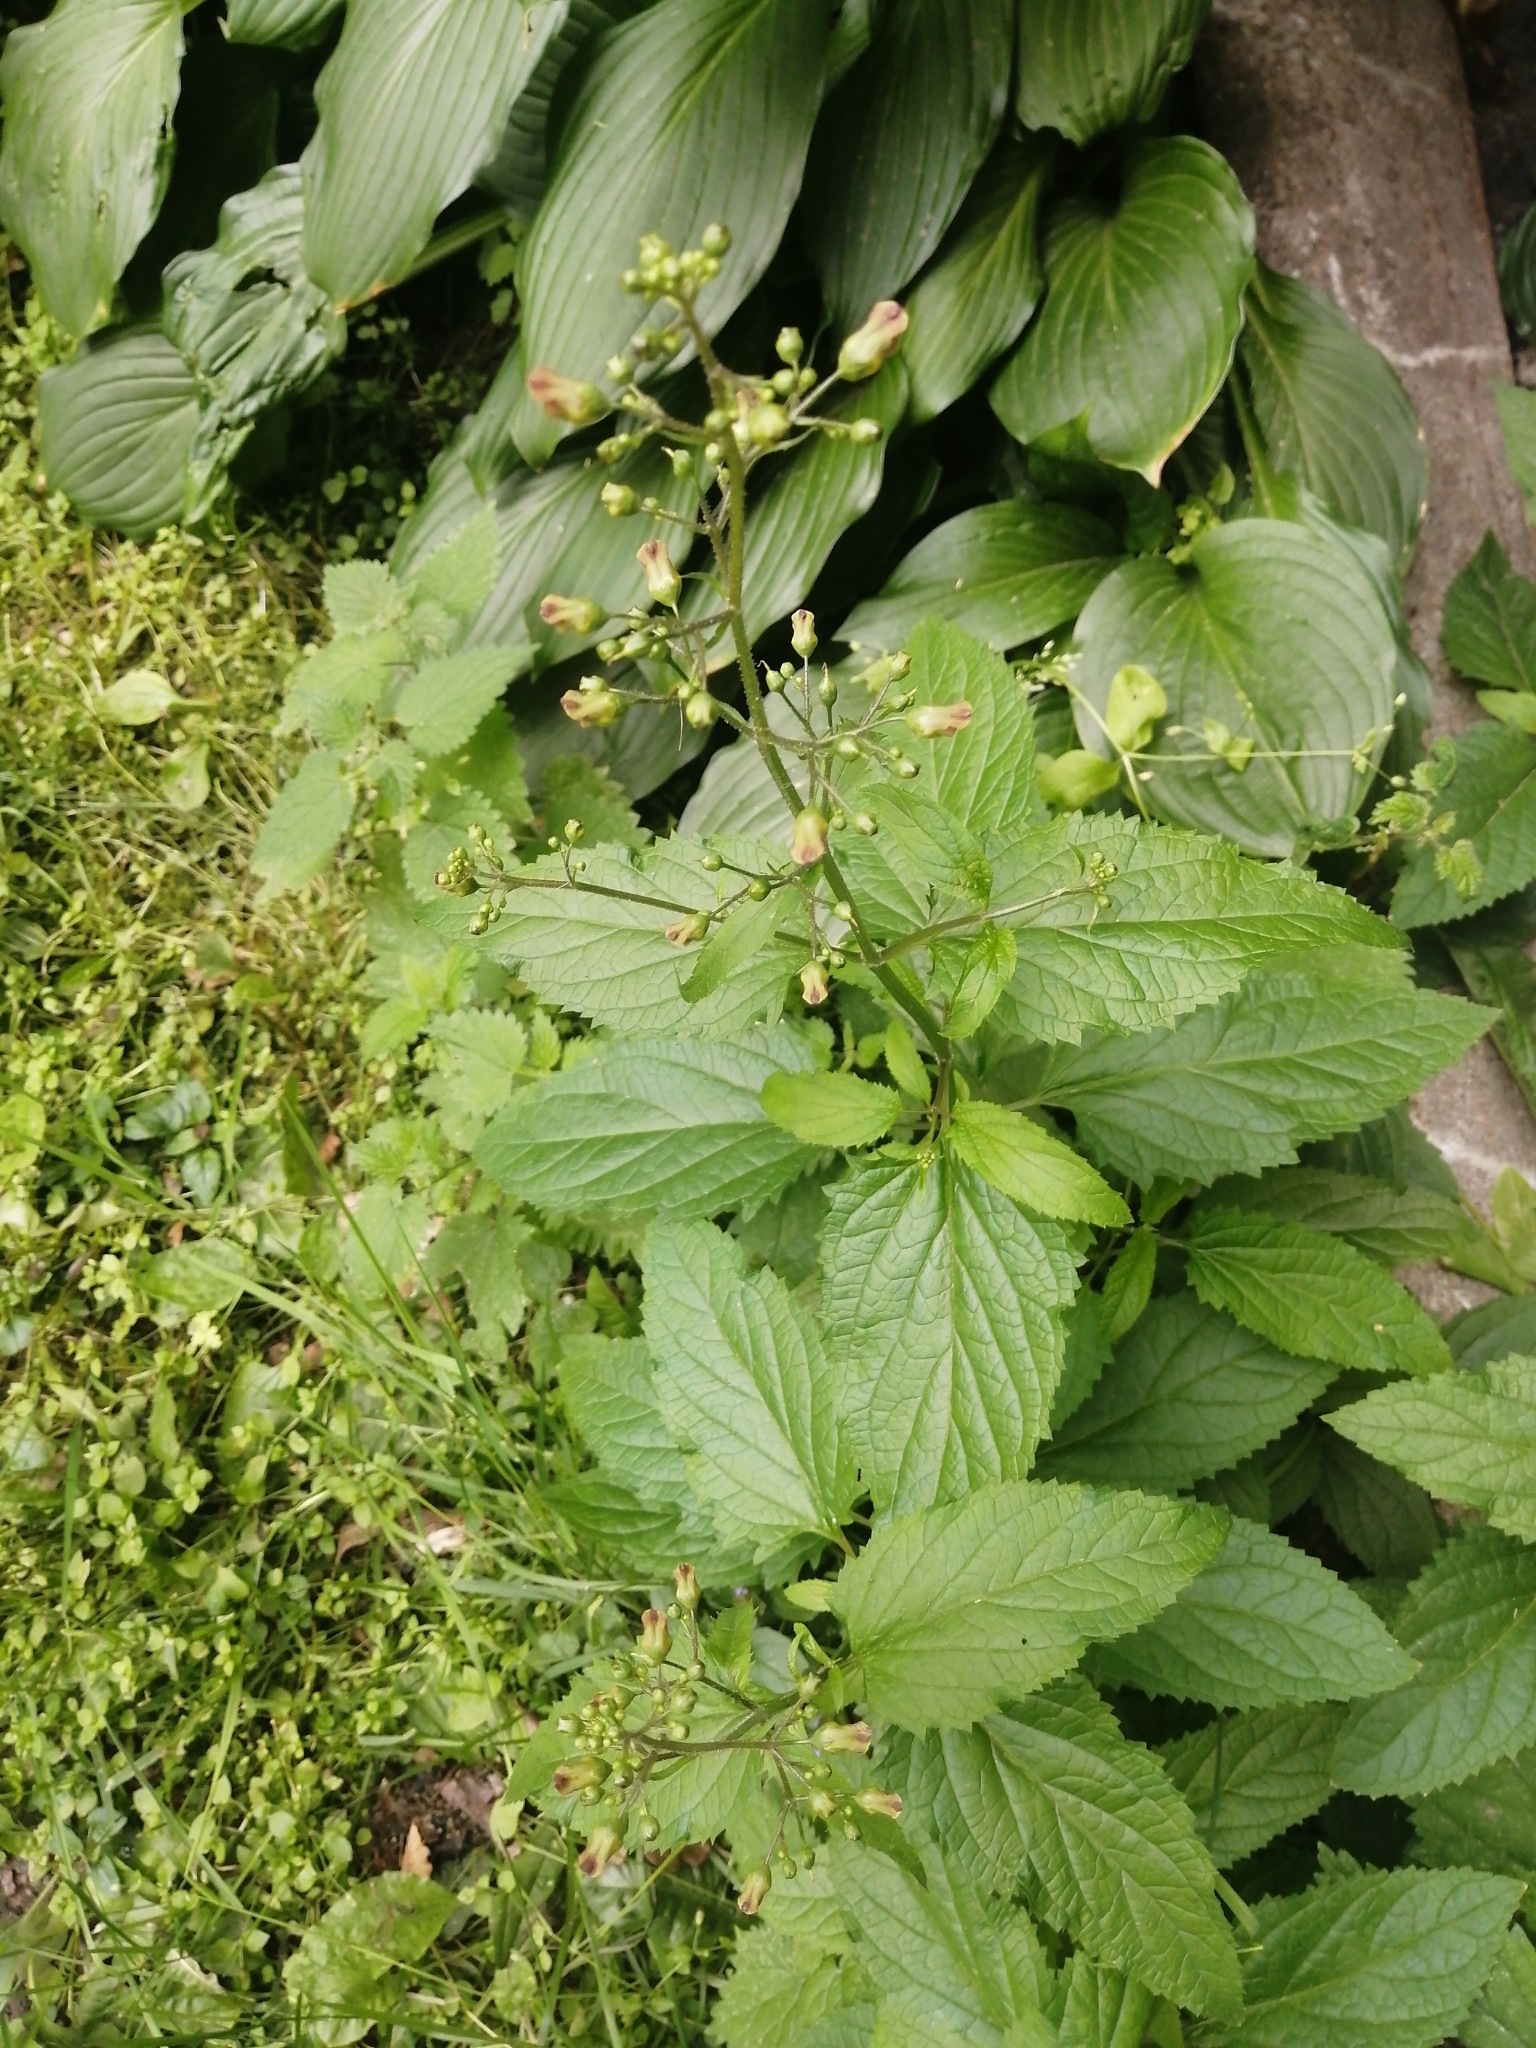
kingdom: Plantae
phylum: Tracheophyta
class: Magnoliopsida
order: Lamiales
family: Scrophulariaceae
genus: Scrophularia
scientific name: Scrophularia nodosa
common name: Common figwort
